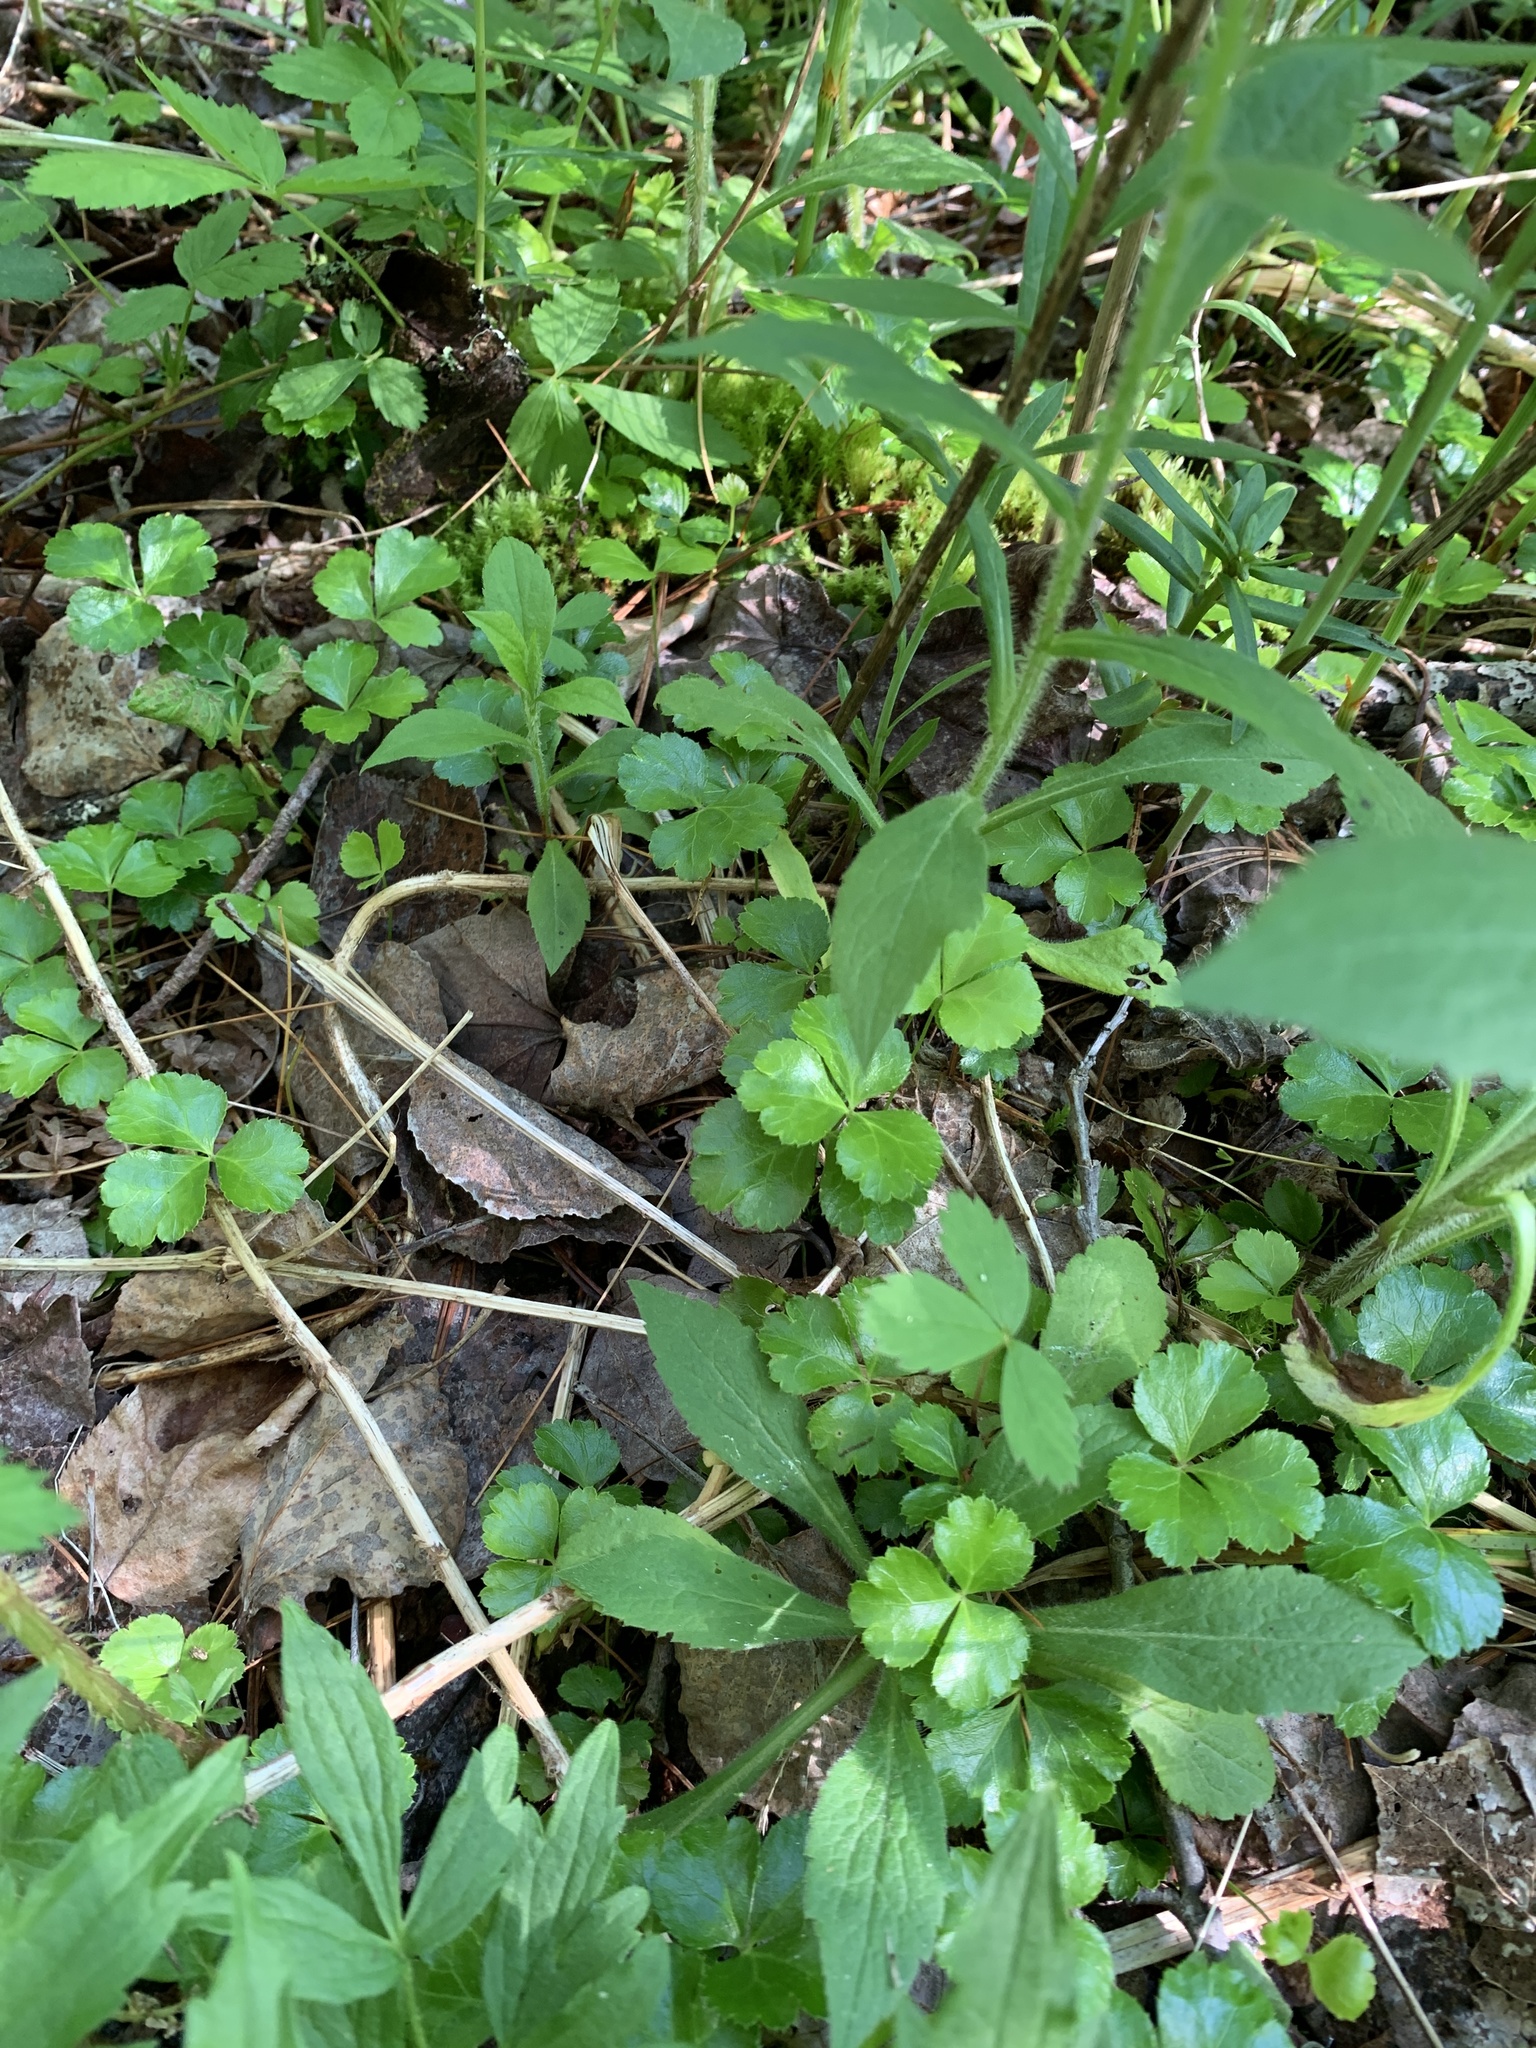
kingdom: Plantae
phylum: Tracheophyta
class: Magnoliopsida
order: Ranunculales
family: Ranunculaceae
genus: Coptis
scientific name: Coptis trifolia
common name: Canker-root
